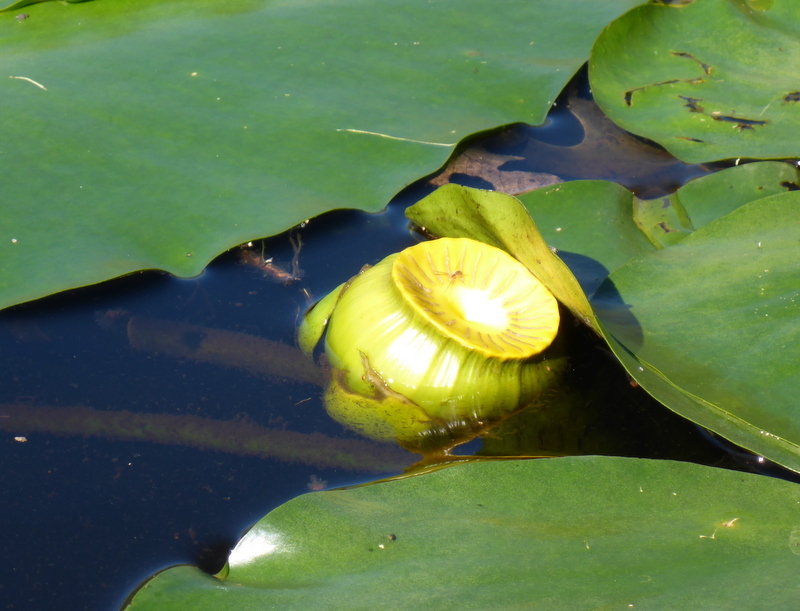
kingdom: Plantae
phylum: Tracheophyta
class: Magnoliopsida
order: Nymphaeales
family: Nymphaeaceae
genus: Nuphar
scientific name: Nuphar advena
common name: Spatter-dock
